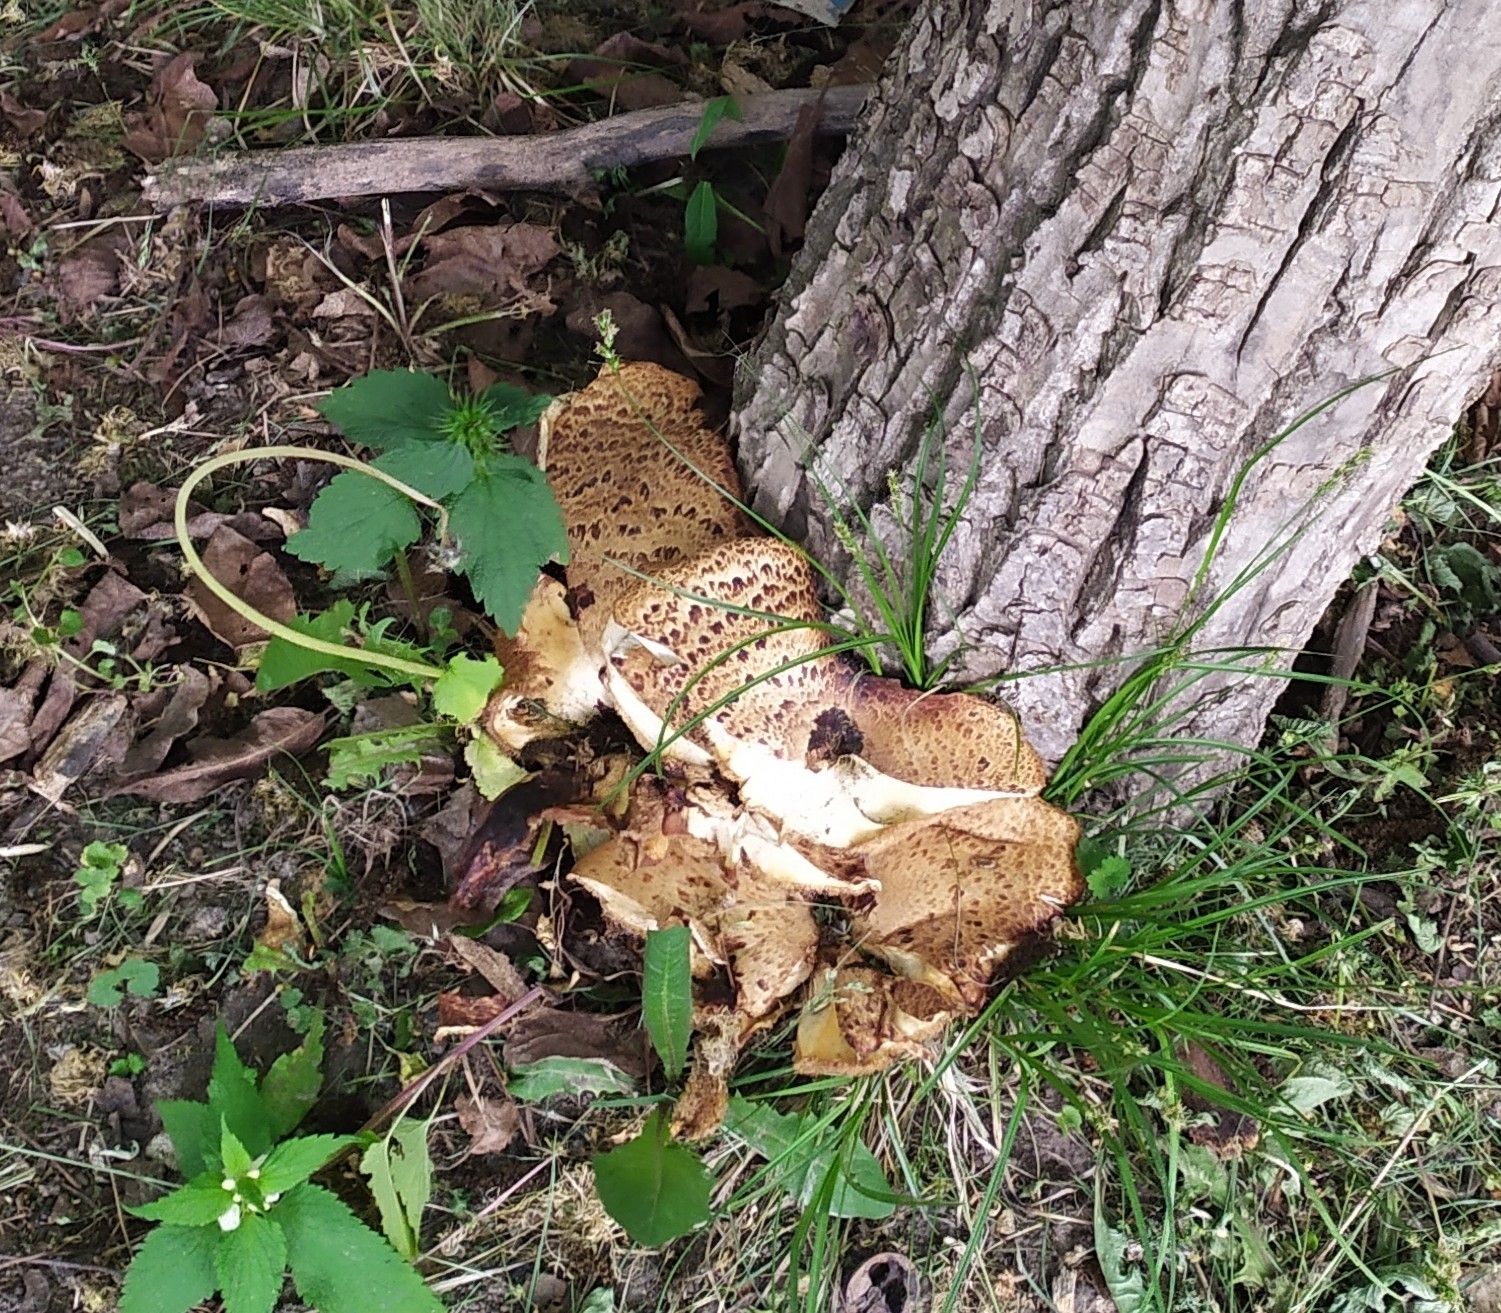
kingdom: Fungi
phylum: Basidiomycota
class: Agaricomycetes
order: Polyporales
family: Polyporaceae
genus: Cerioporus
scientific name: Cerioporus squamosus
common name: Dryad's saddle
